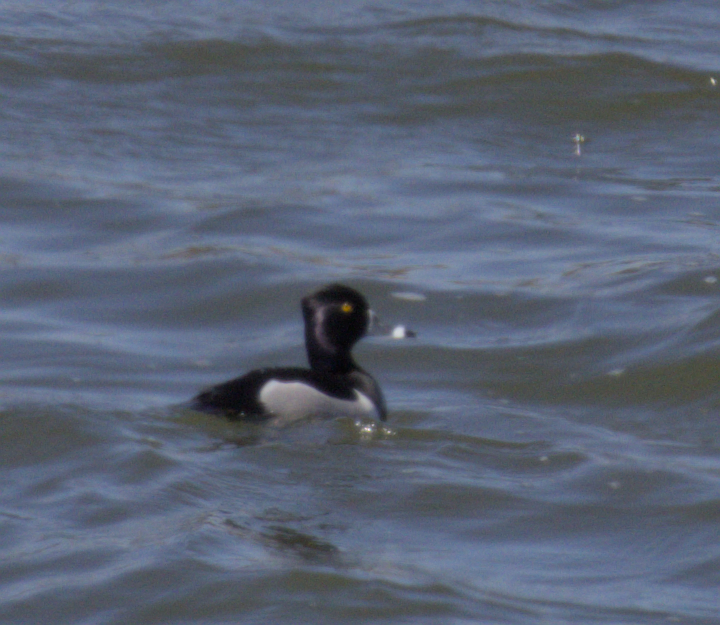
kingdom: Animalia
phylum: Chordata
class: Aves
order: Anseriformes
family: Anatidae
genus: Aythya
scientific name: Aythya collaris
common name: Ring-necked duck
